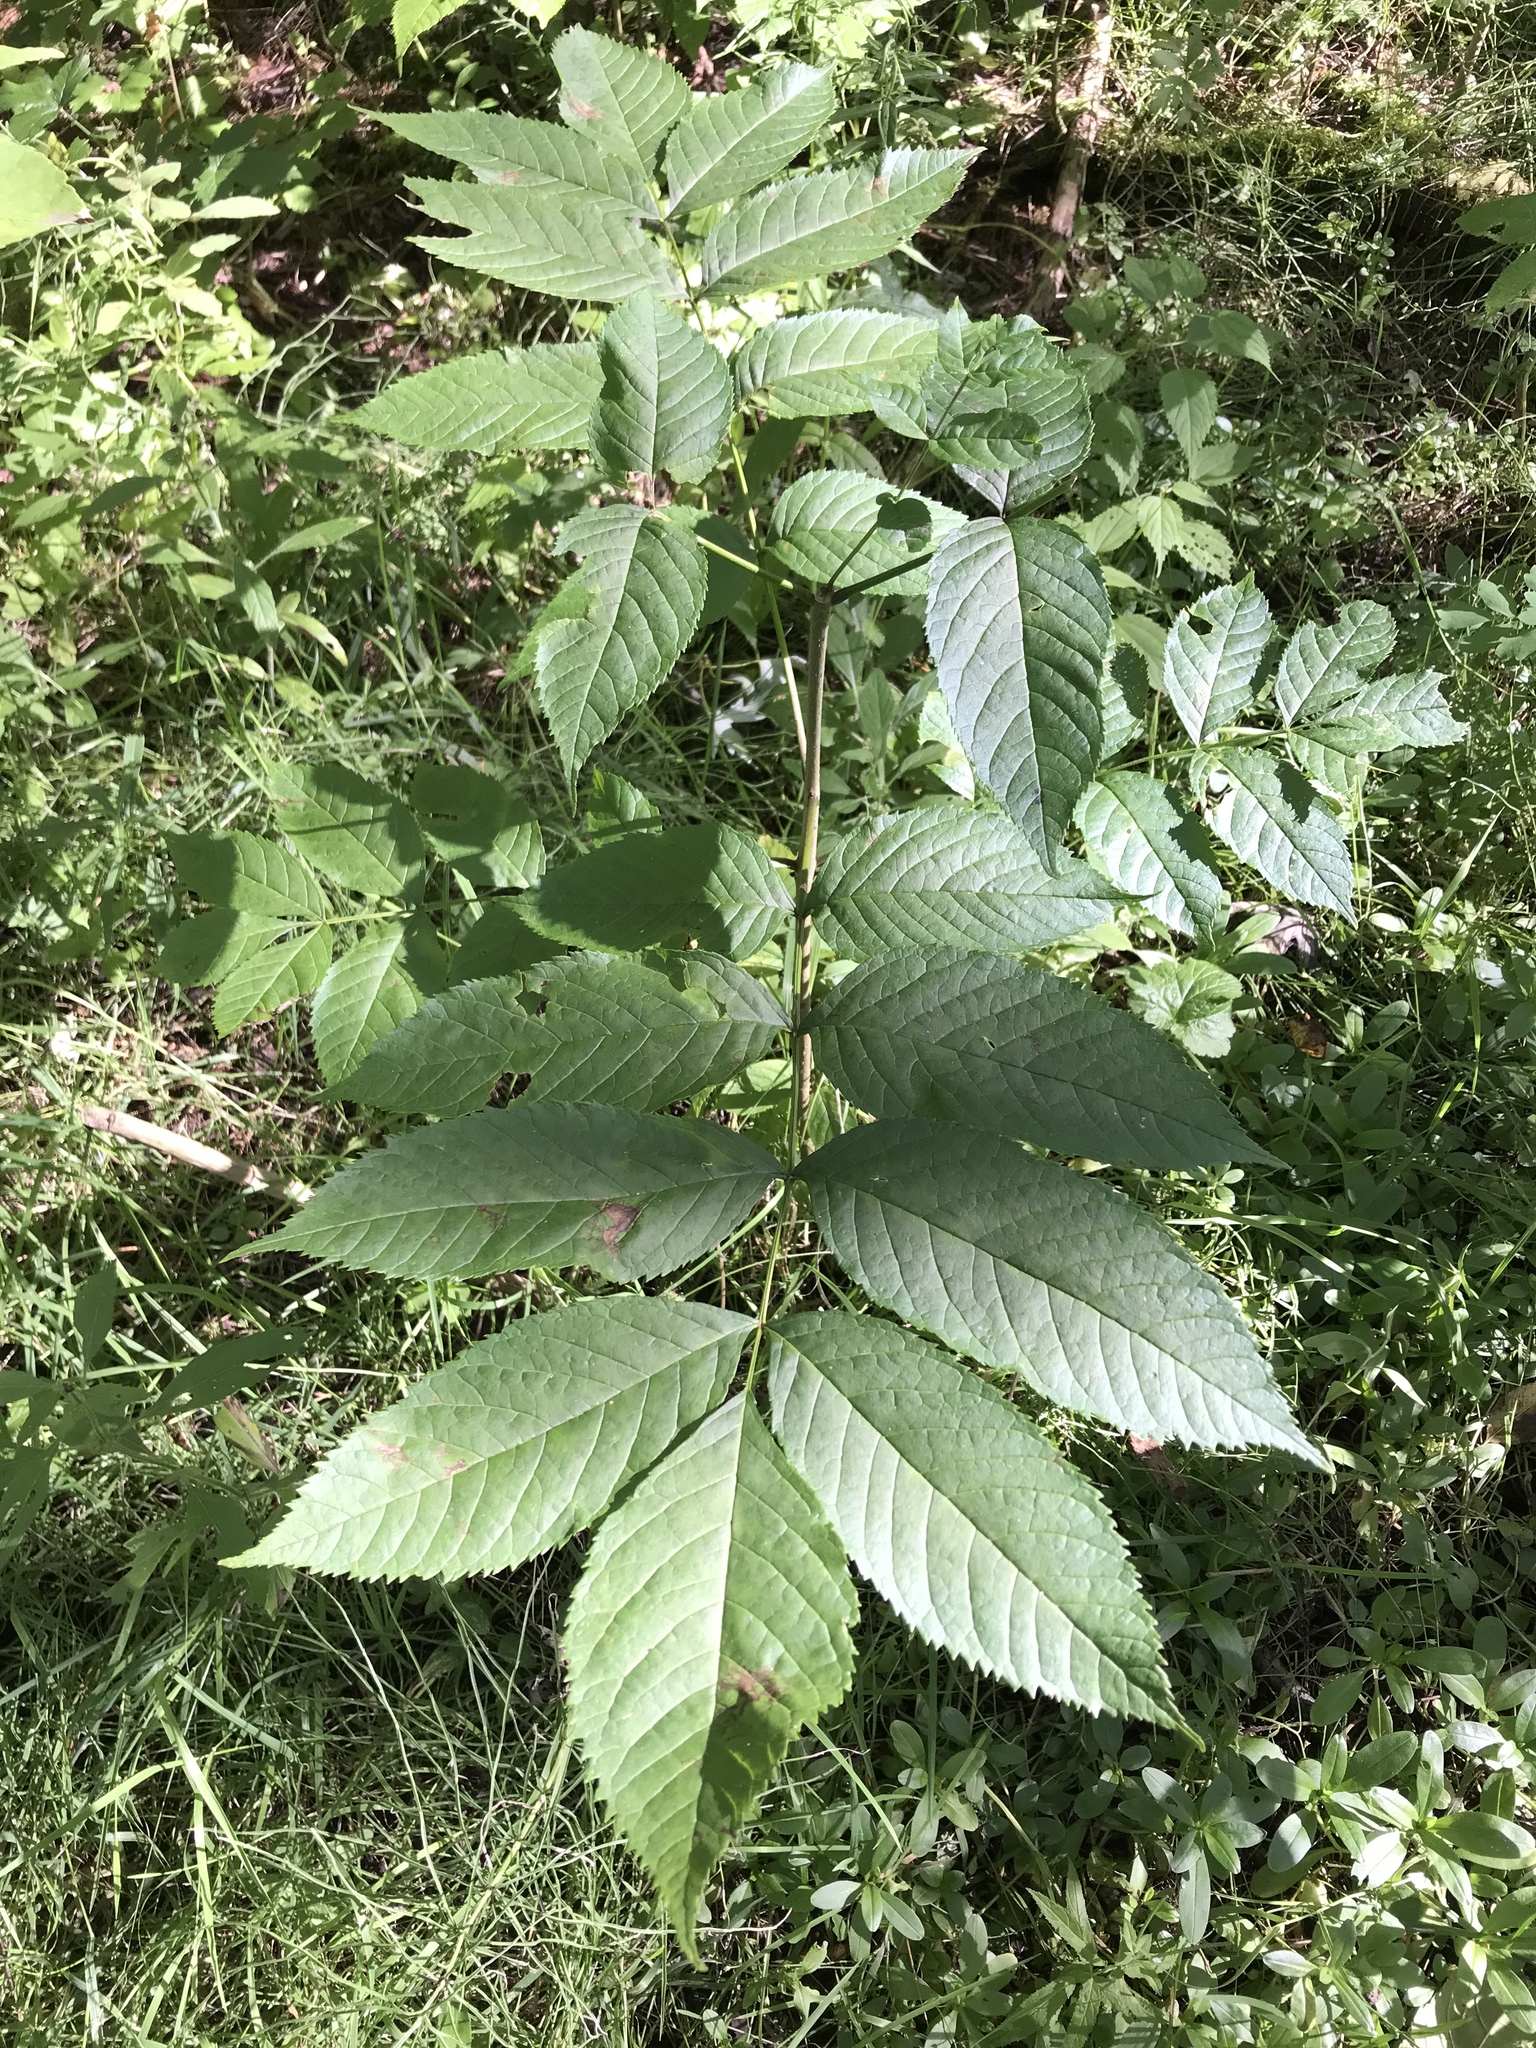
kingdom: Plantae
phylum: Tracheophyta
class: Magnoliopsida
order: Lamiales
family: Oleaceae
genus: Fraxinus
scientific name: Fraxinus nigra
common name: Black ash
